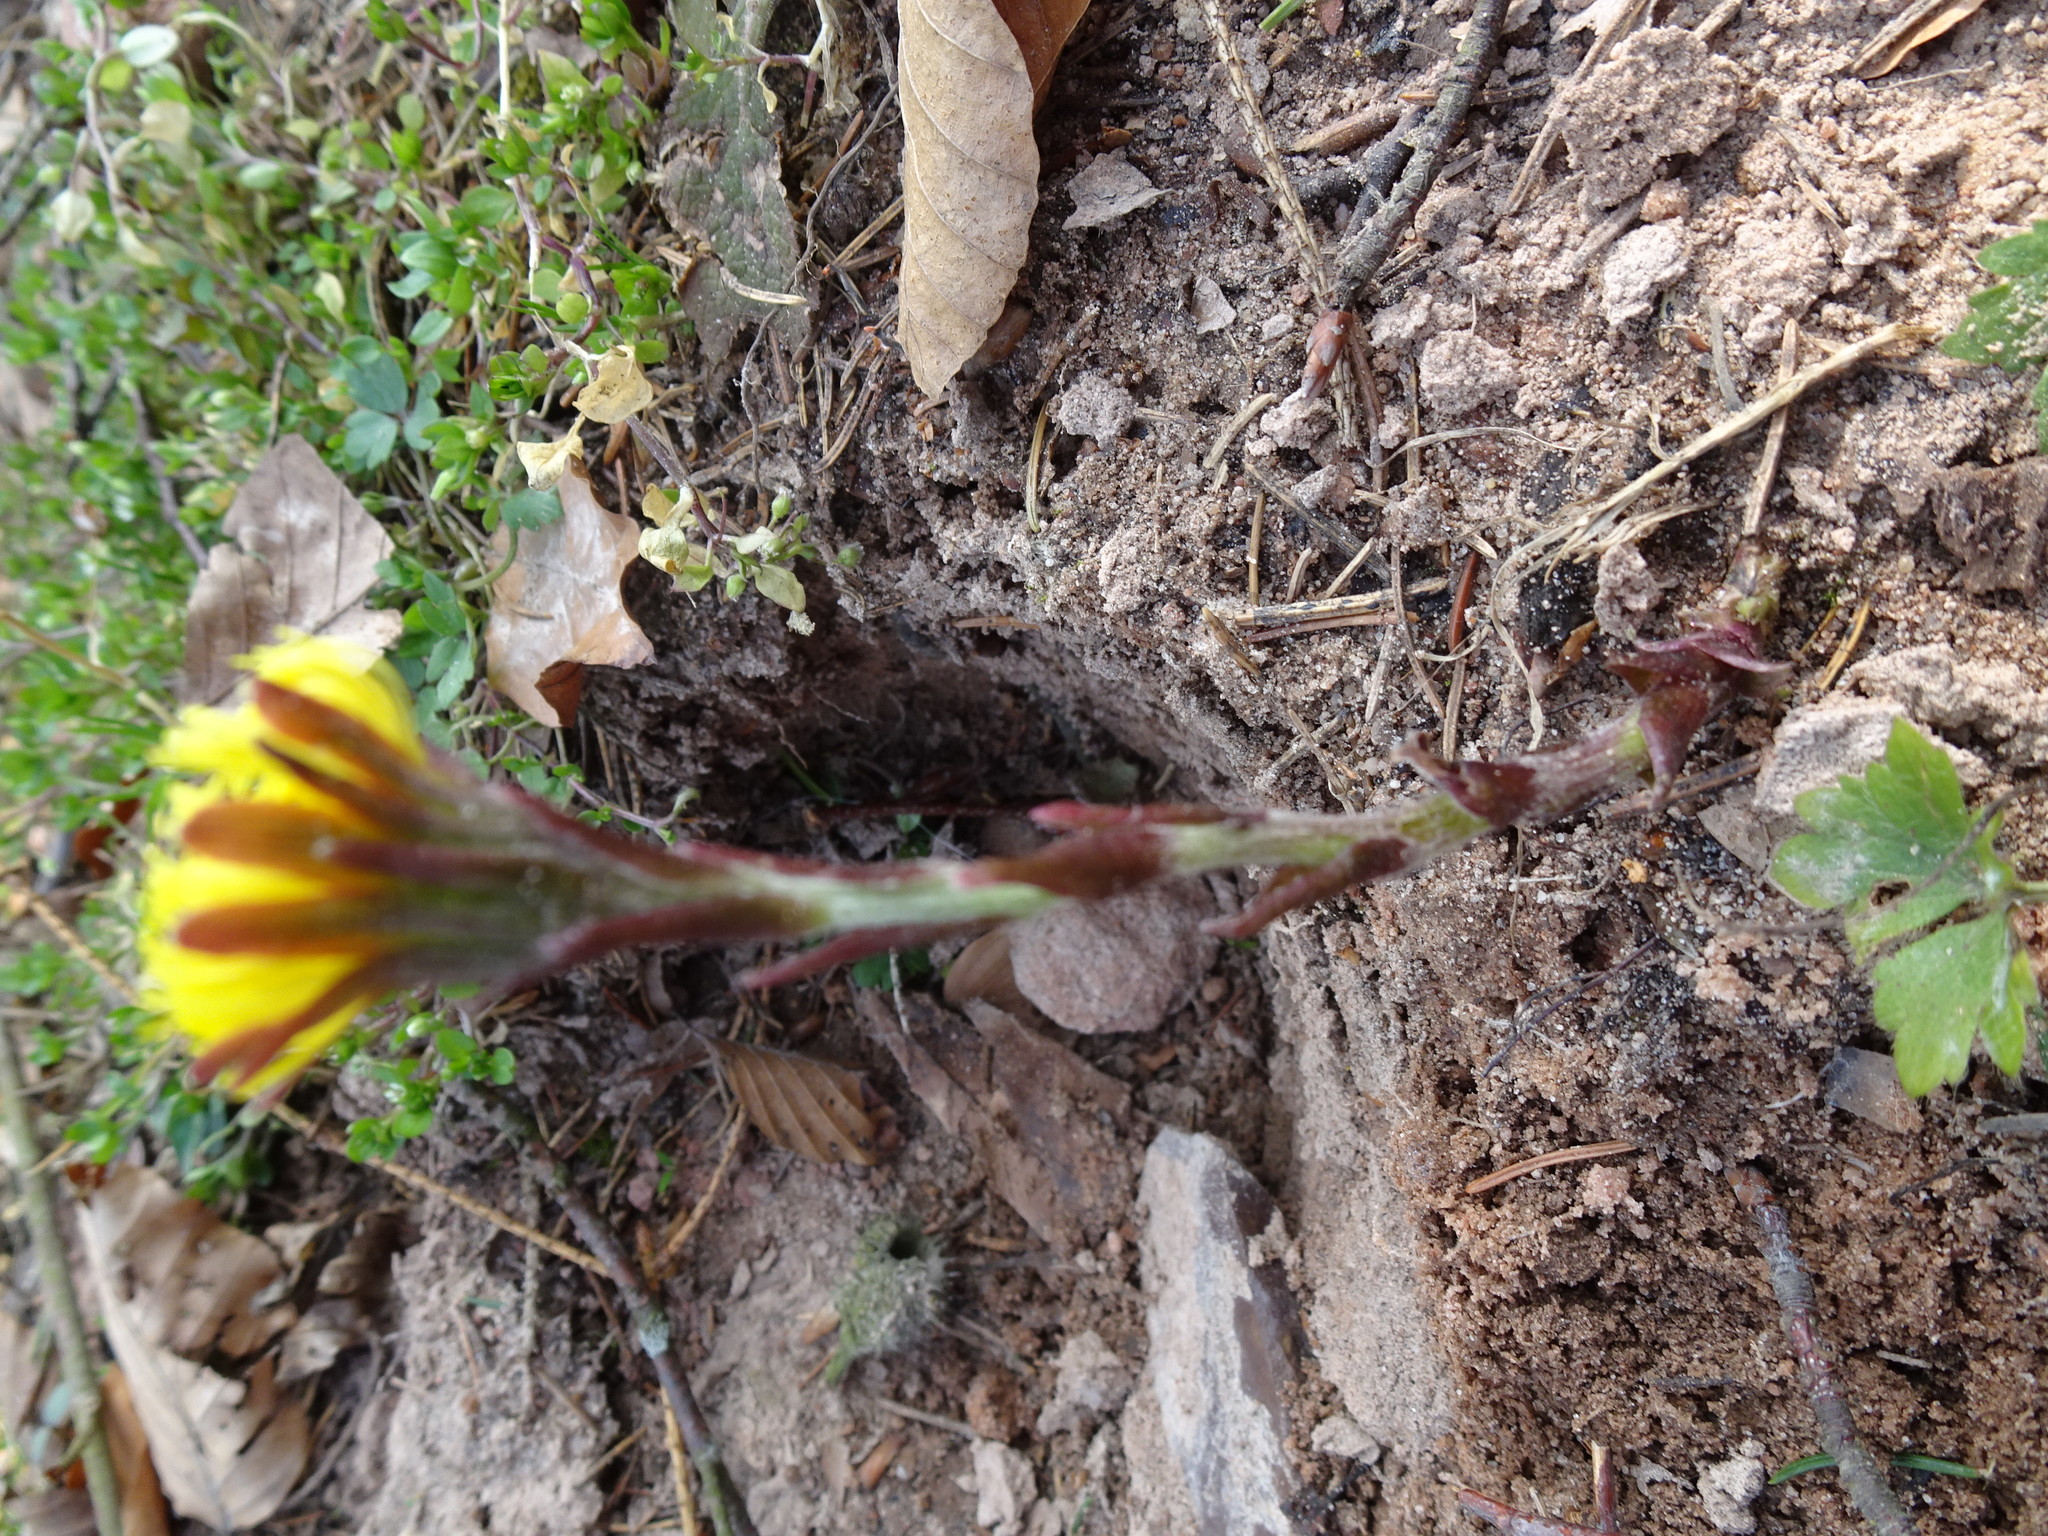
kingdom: Plantae
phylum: Tracheophyta
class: Magnoliopsida
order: Asterales
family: Asteraceae
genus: Tussilago
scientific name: Tussilago farfara
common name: Coltsfoot
